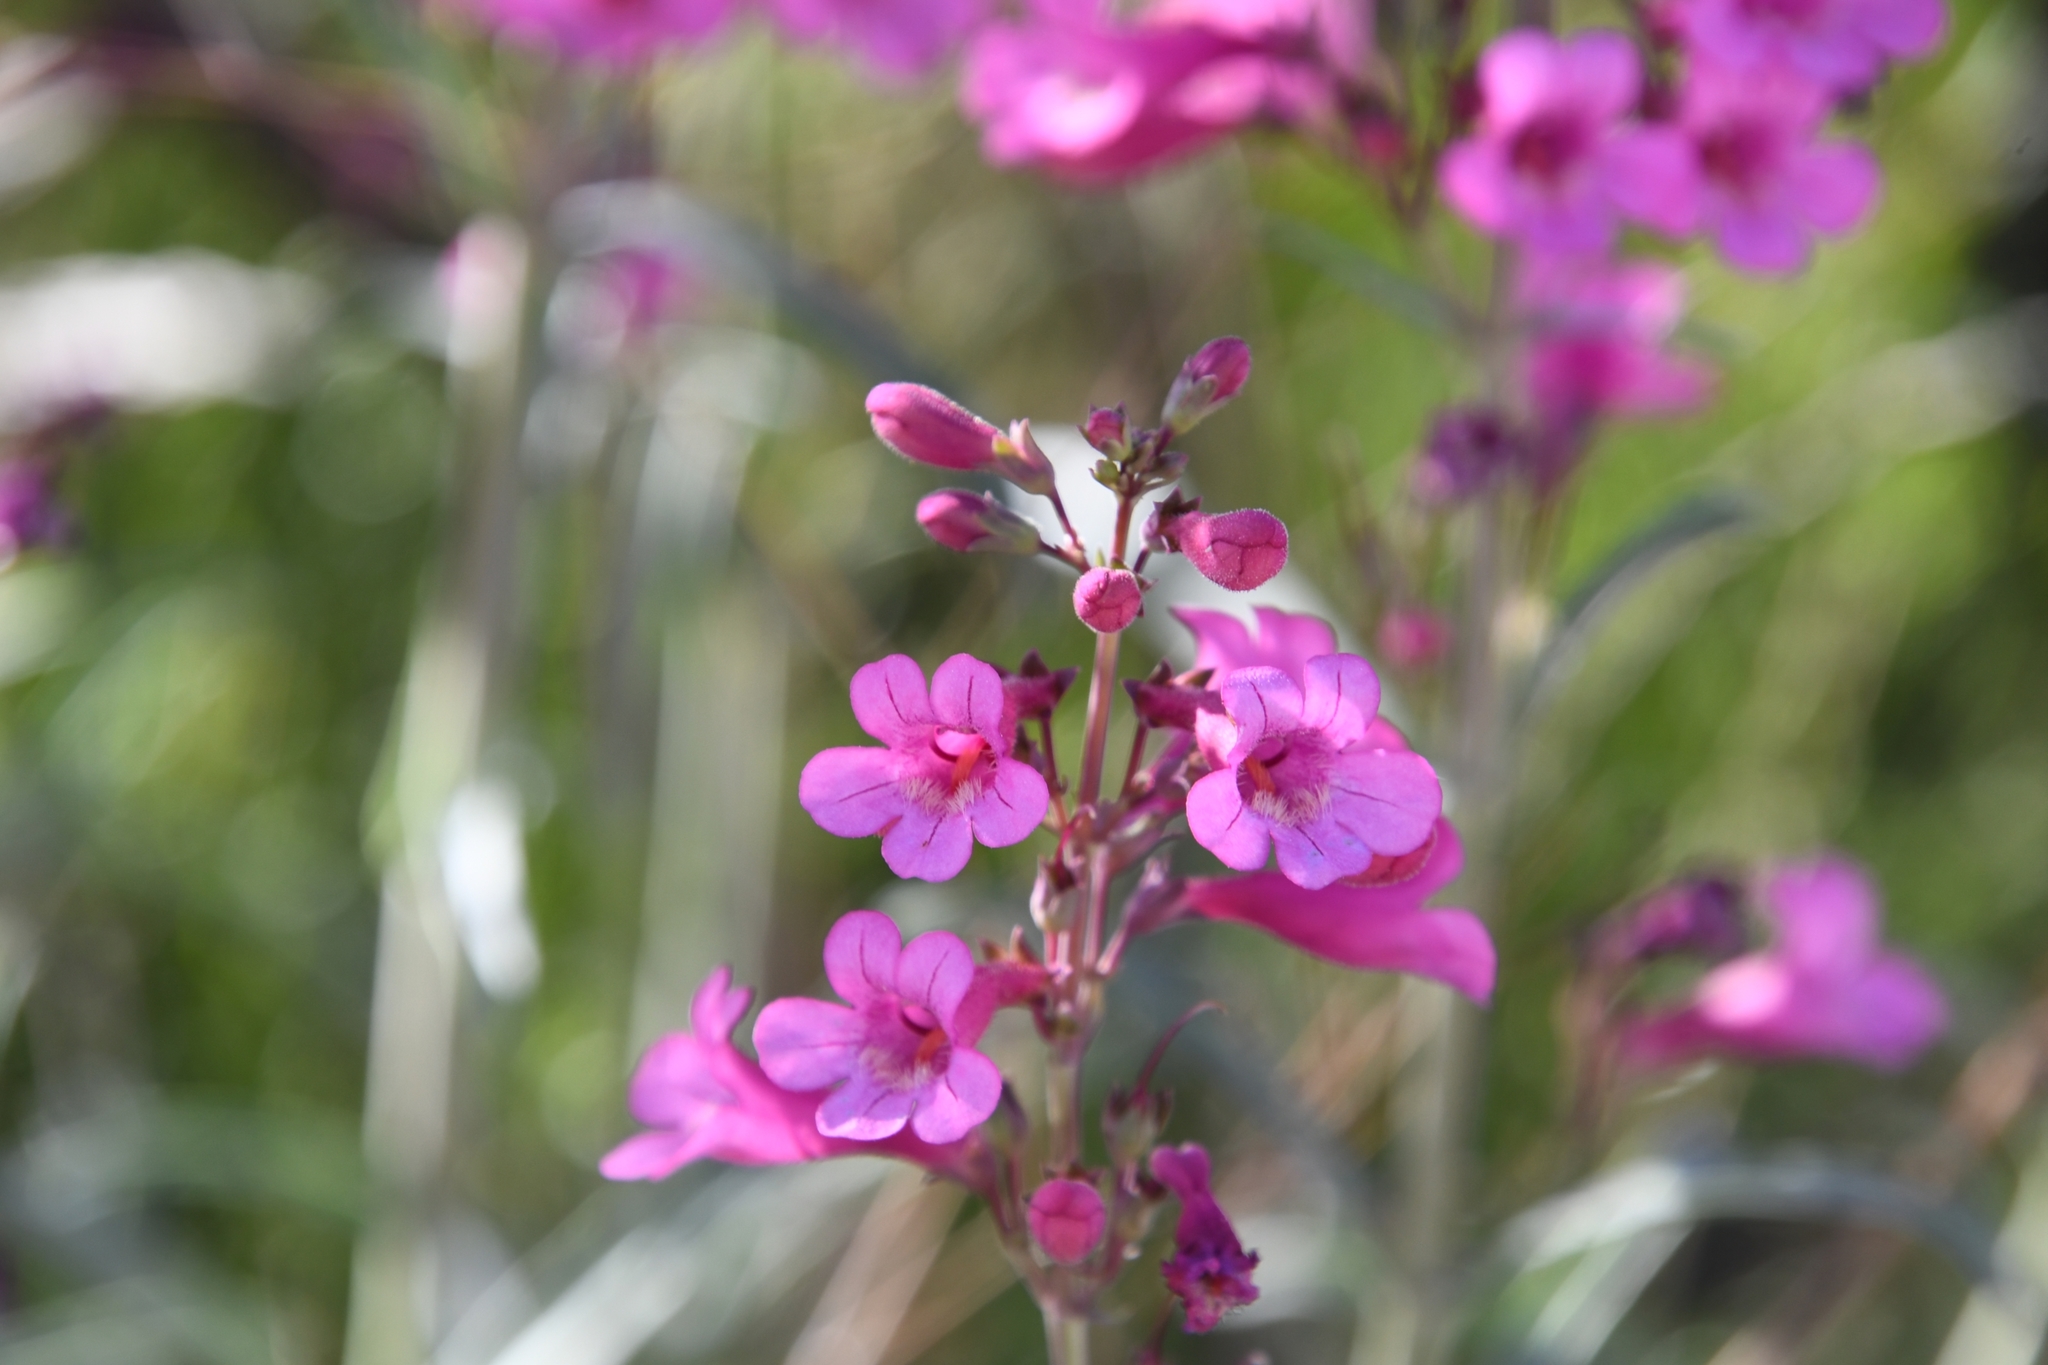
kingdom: Plantae
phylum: Tracheophyta
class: Magnoliopsida
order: Lamiales
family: Plantaginaceae
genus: Penstemon
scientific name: Penstemon parryi
